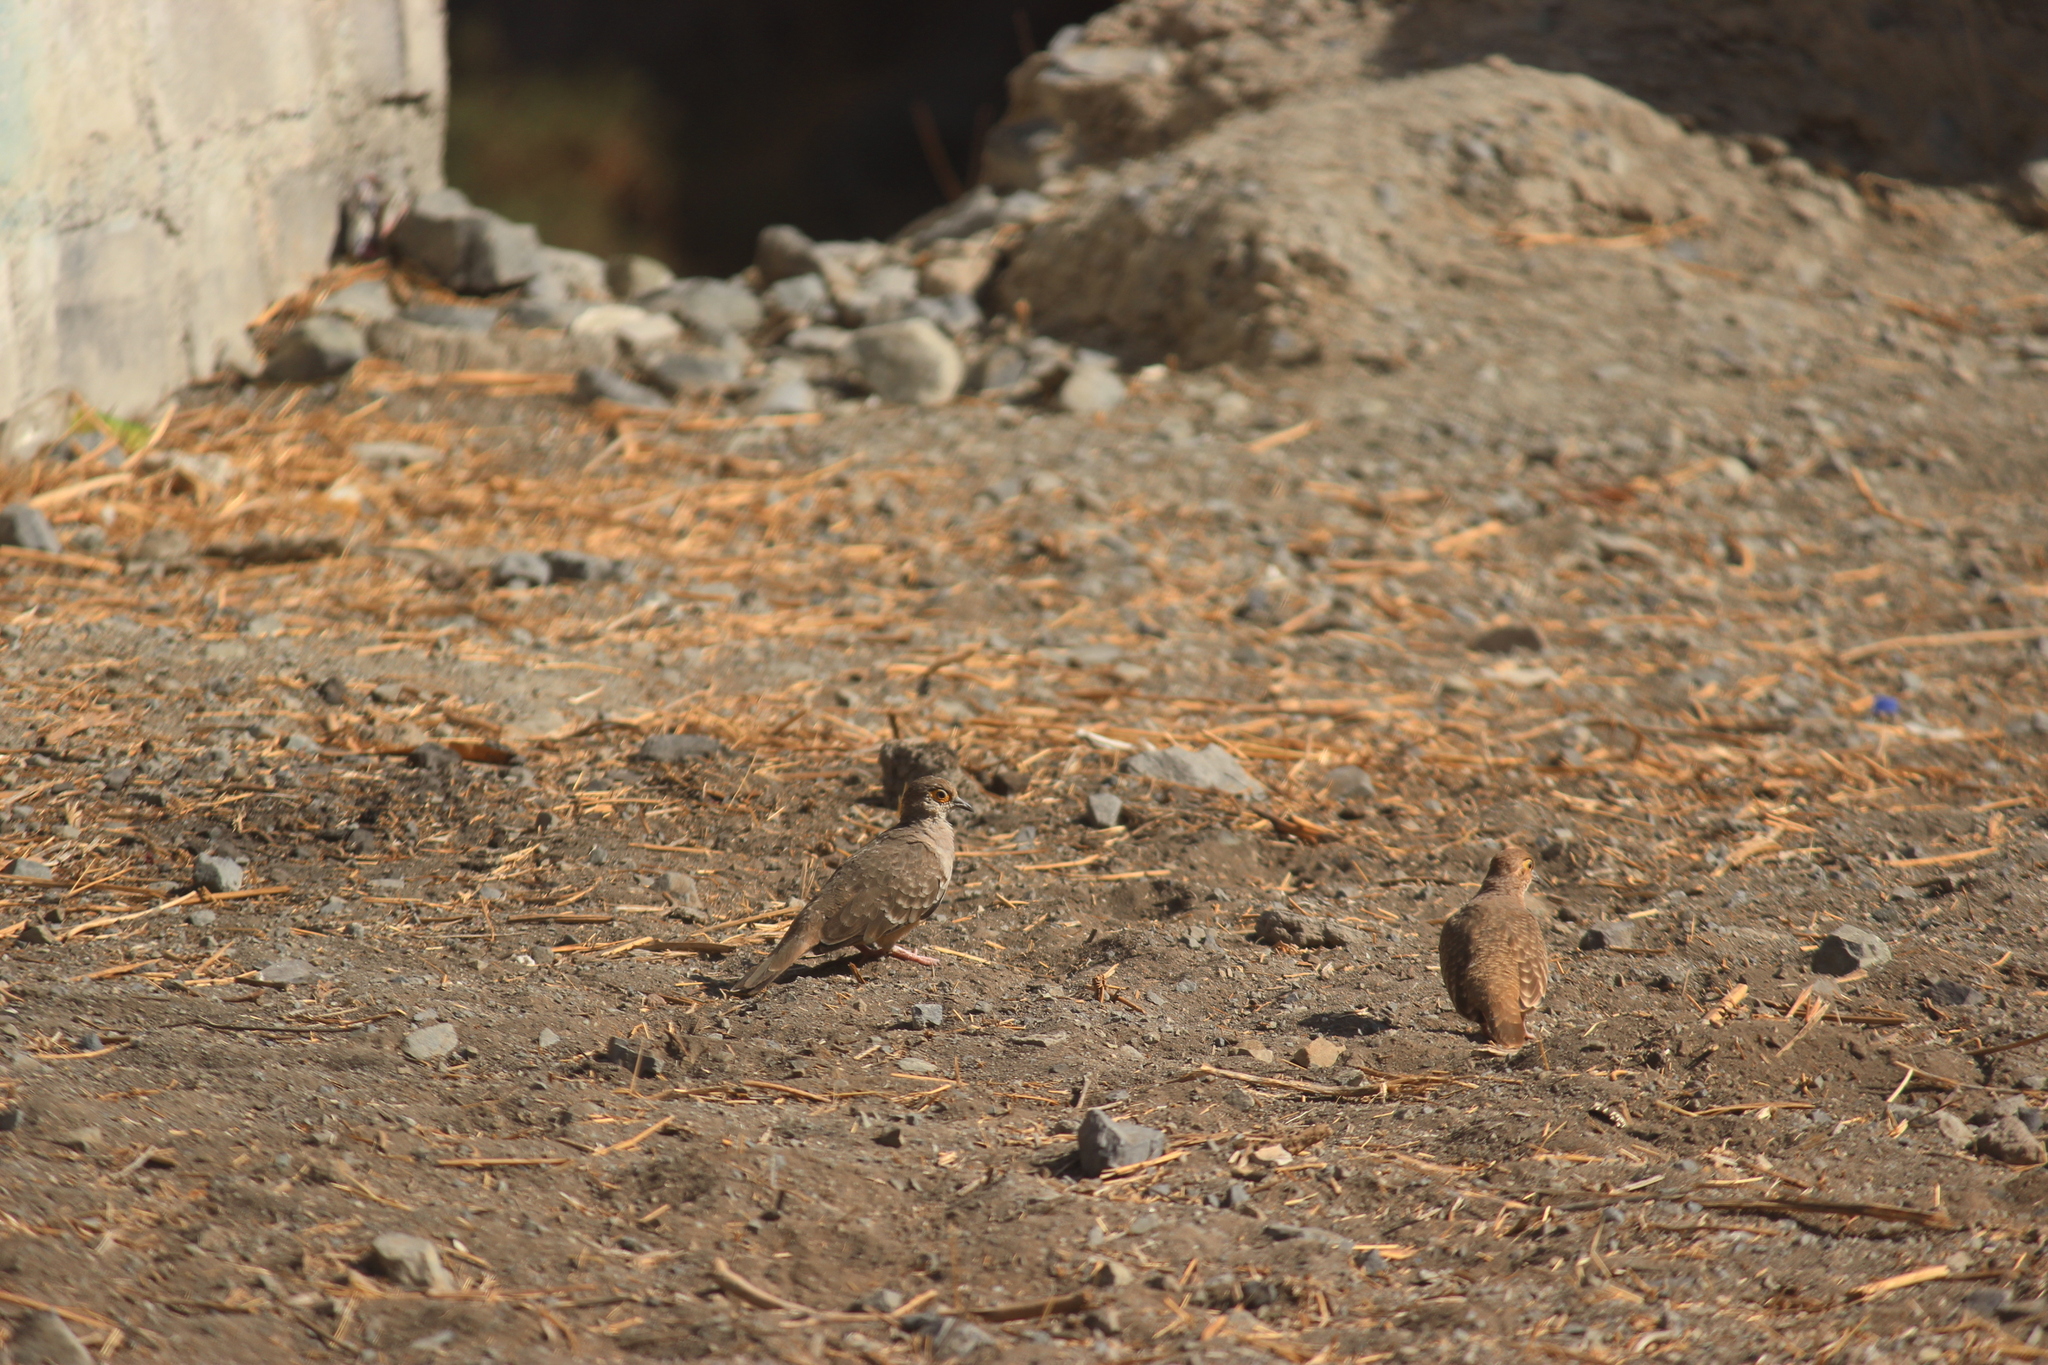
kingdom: Animalia
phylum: Chordata
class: Aves
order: Columbiformes
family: Columbidae
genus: Metriopelia
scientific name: Metriopelia ceciliae
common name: Bare-faced ground dove
